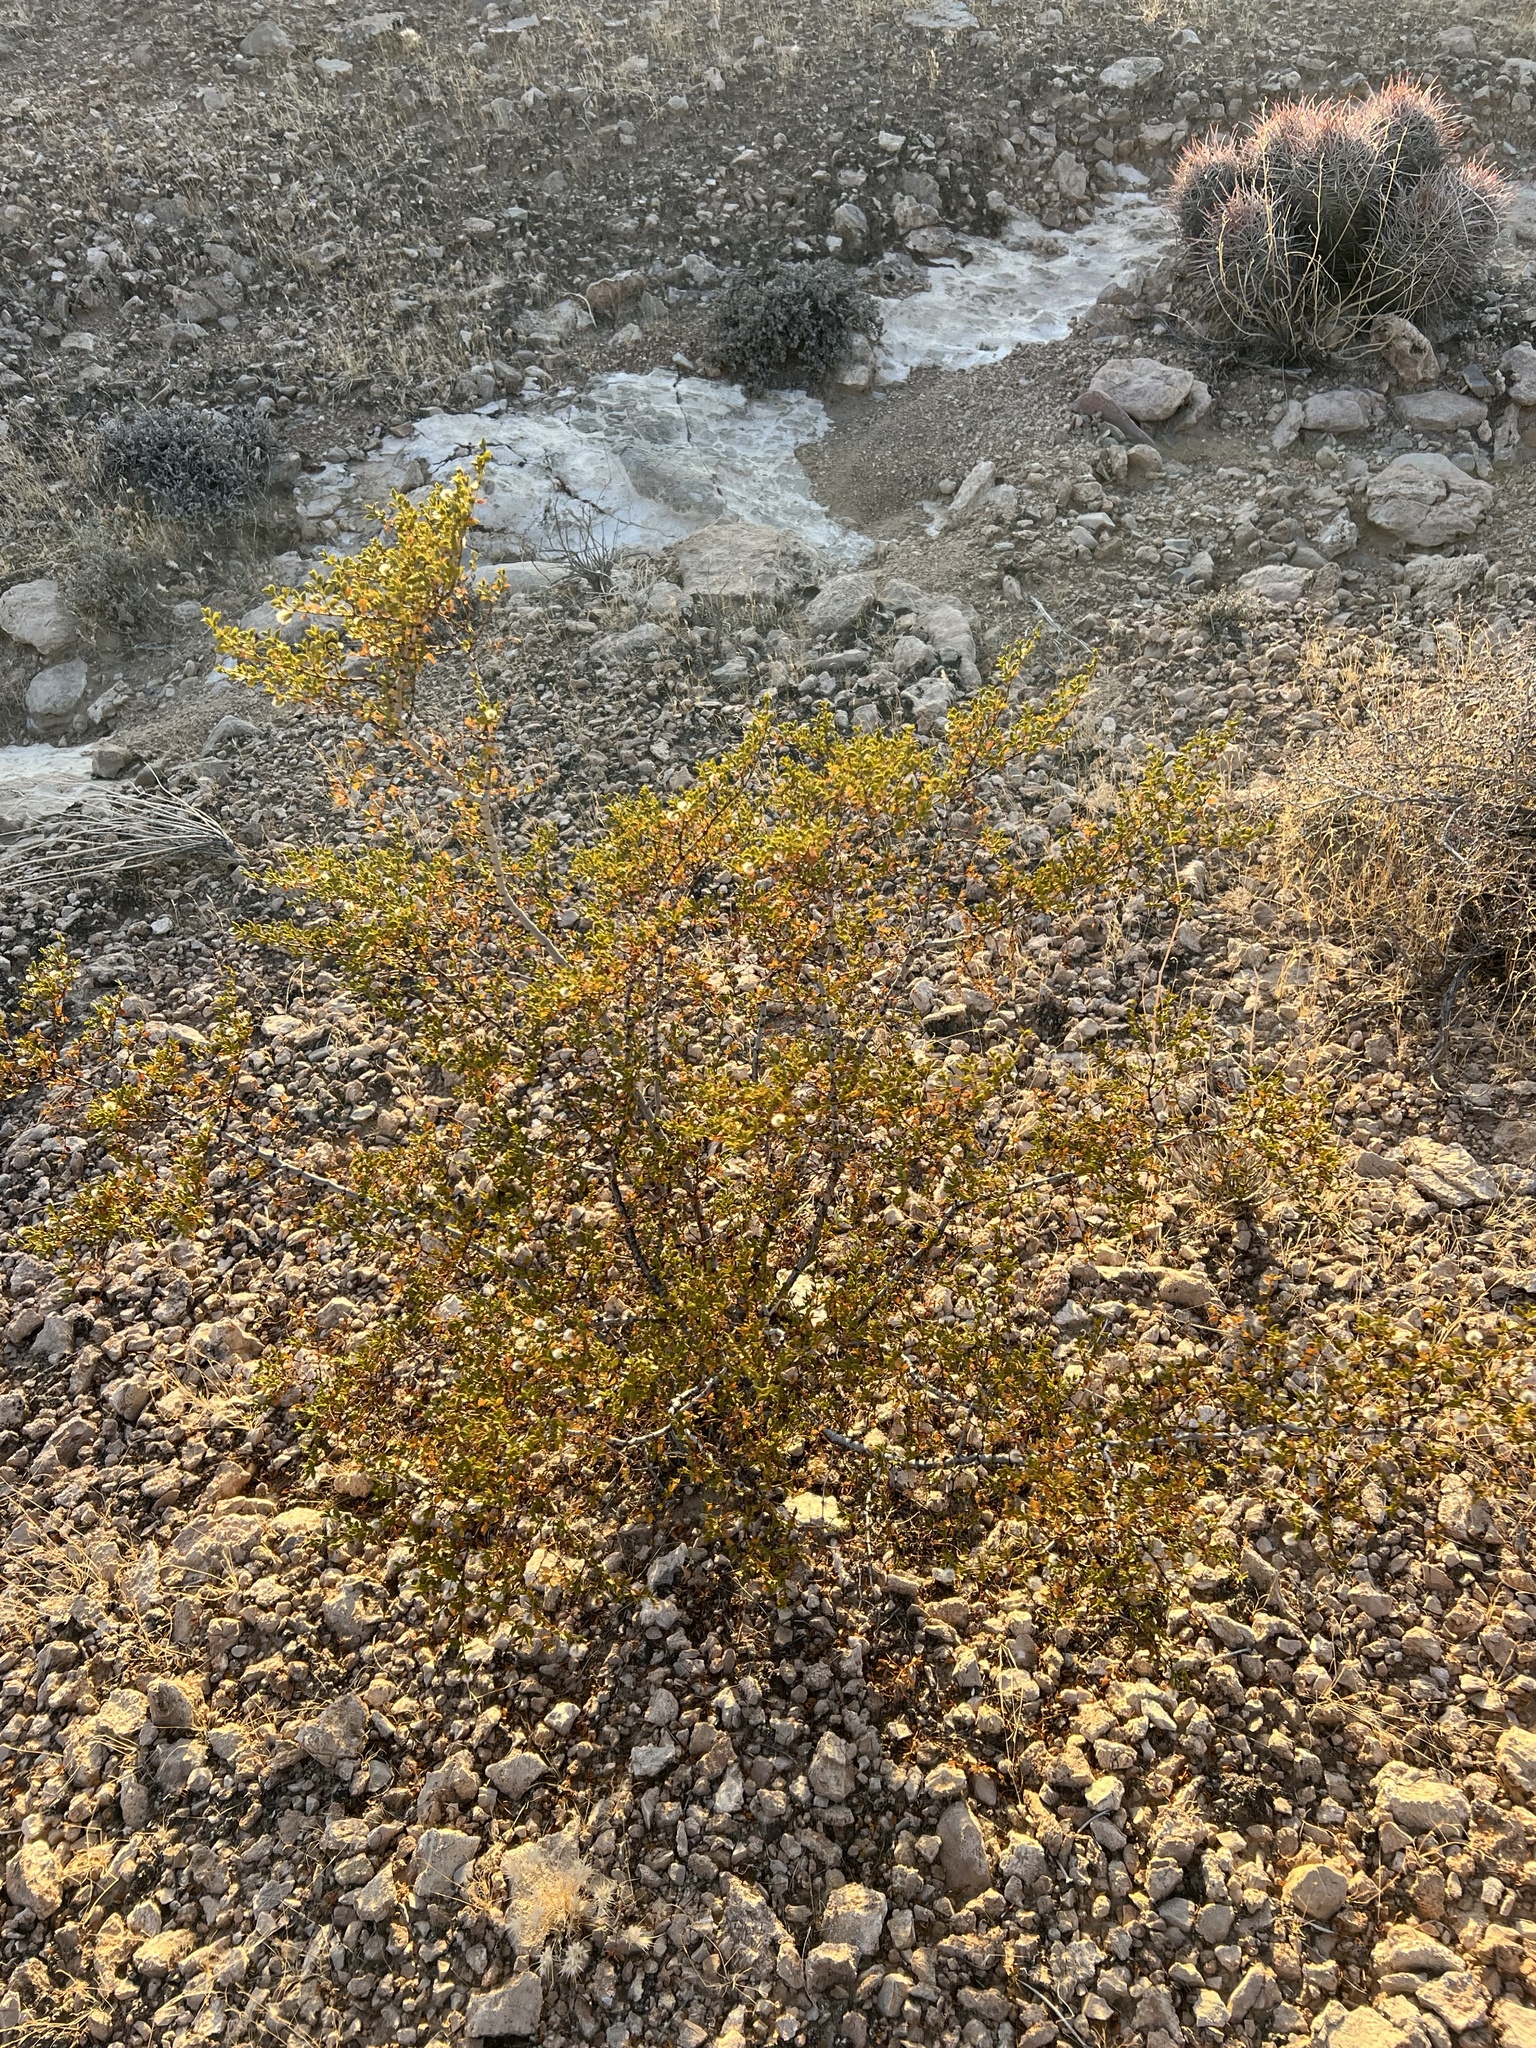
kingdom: Plantae
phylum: Tracheophyta
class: Magnoliopsida
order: Zygophyllales
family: Zygophyllaceae
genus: Larrea
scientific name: Larrea tridentata
